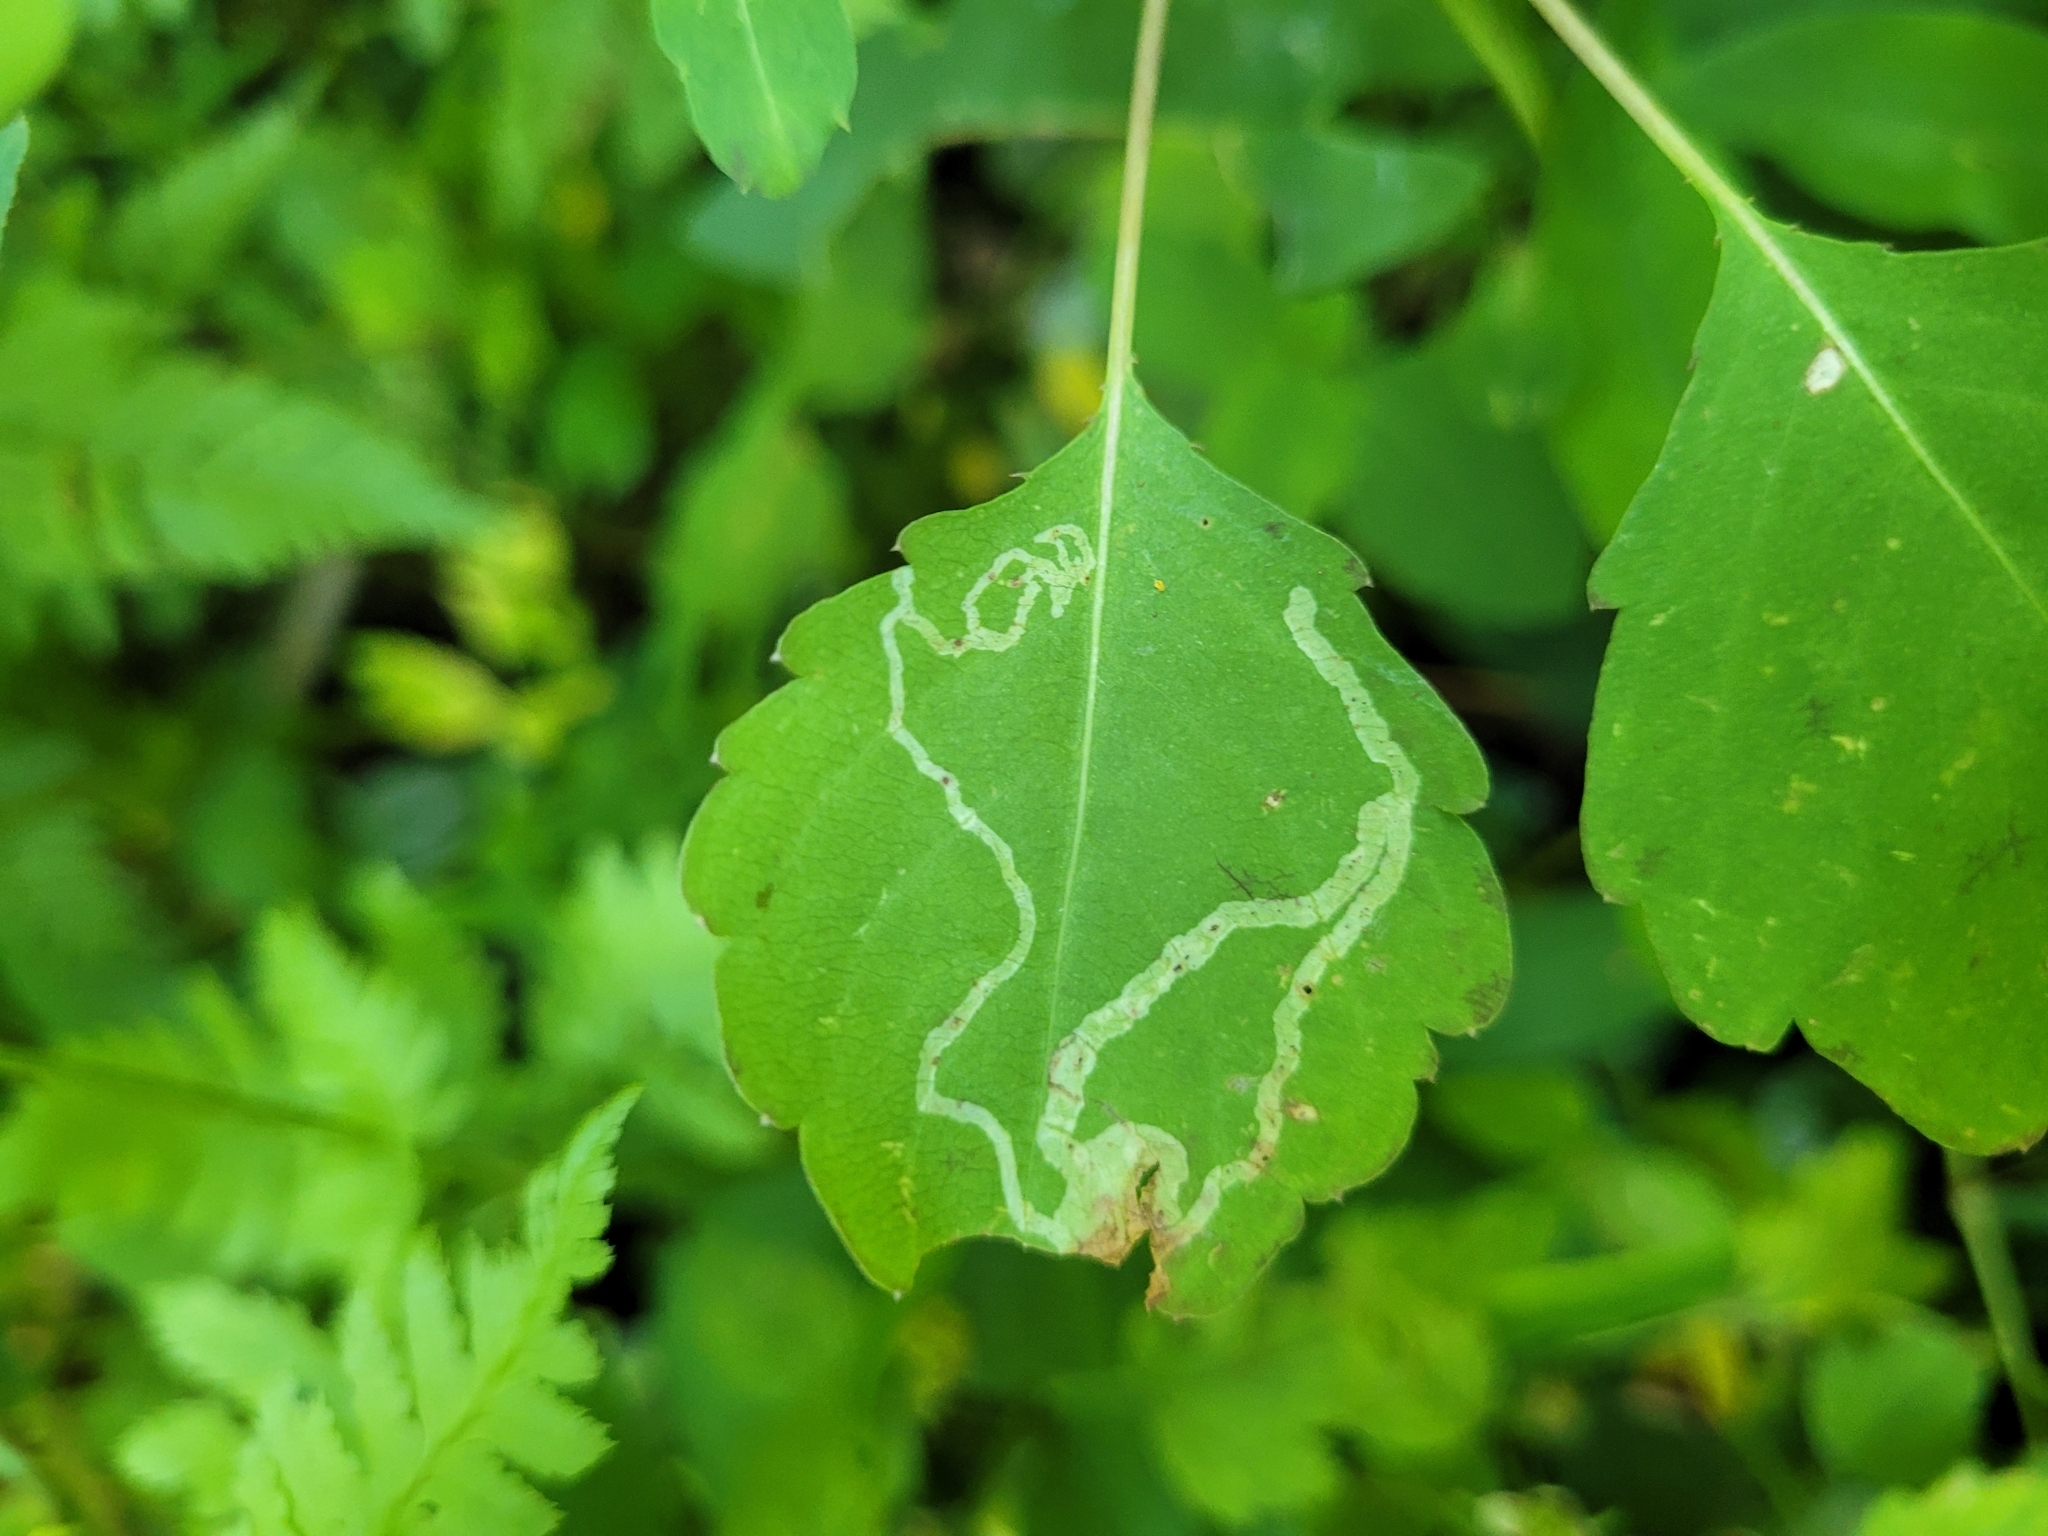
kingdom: Animalia
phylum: Arthropoda
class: Insecta
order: Diptera
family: Agromyzidae
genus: Phytoliriomyza
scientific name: Phytoliriomyza melampyga
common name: Jewelweed leaf-miner fly
